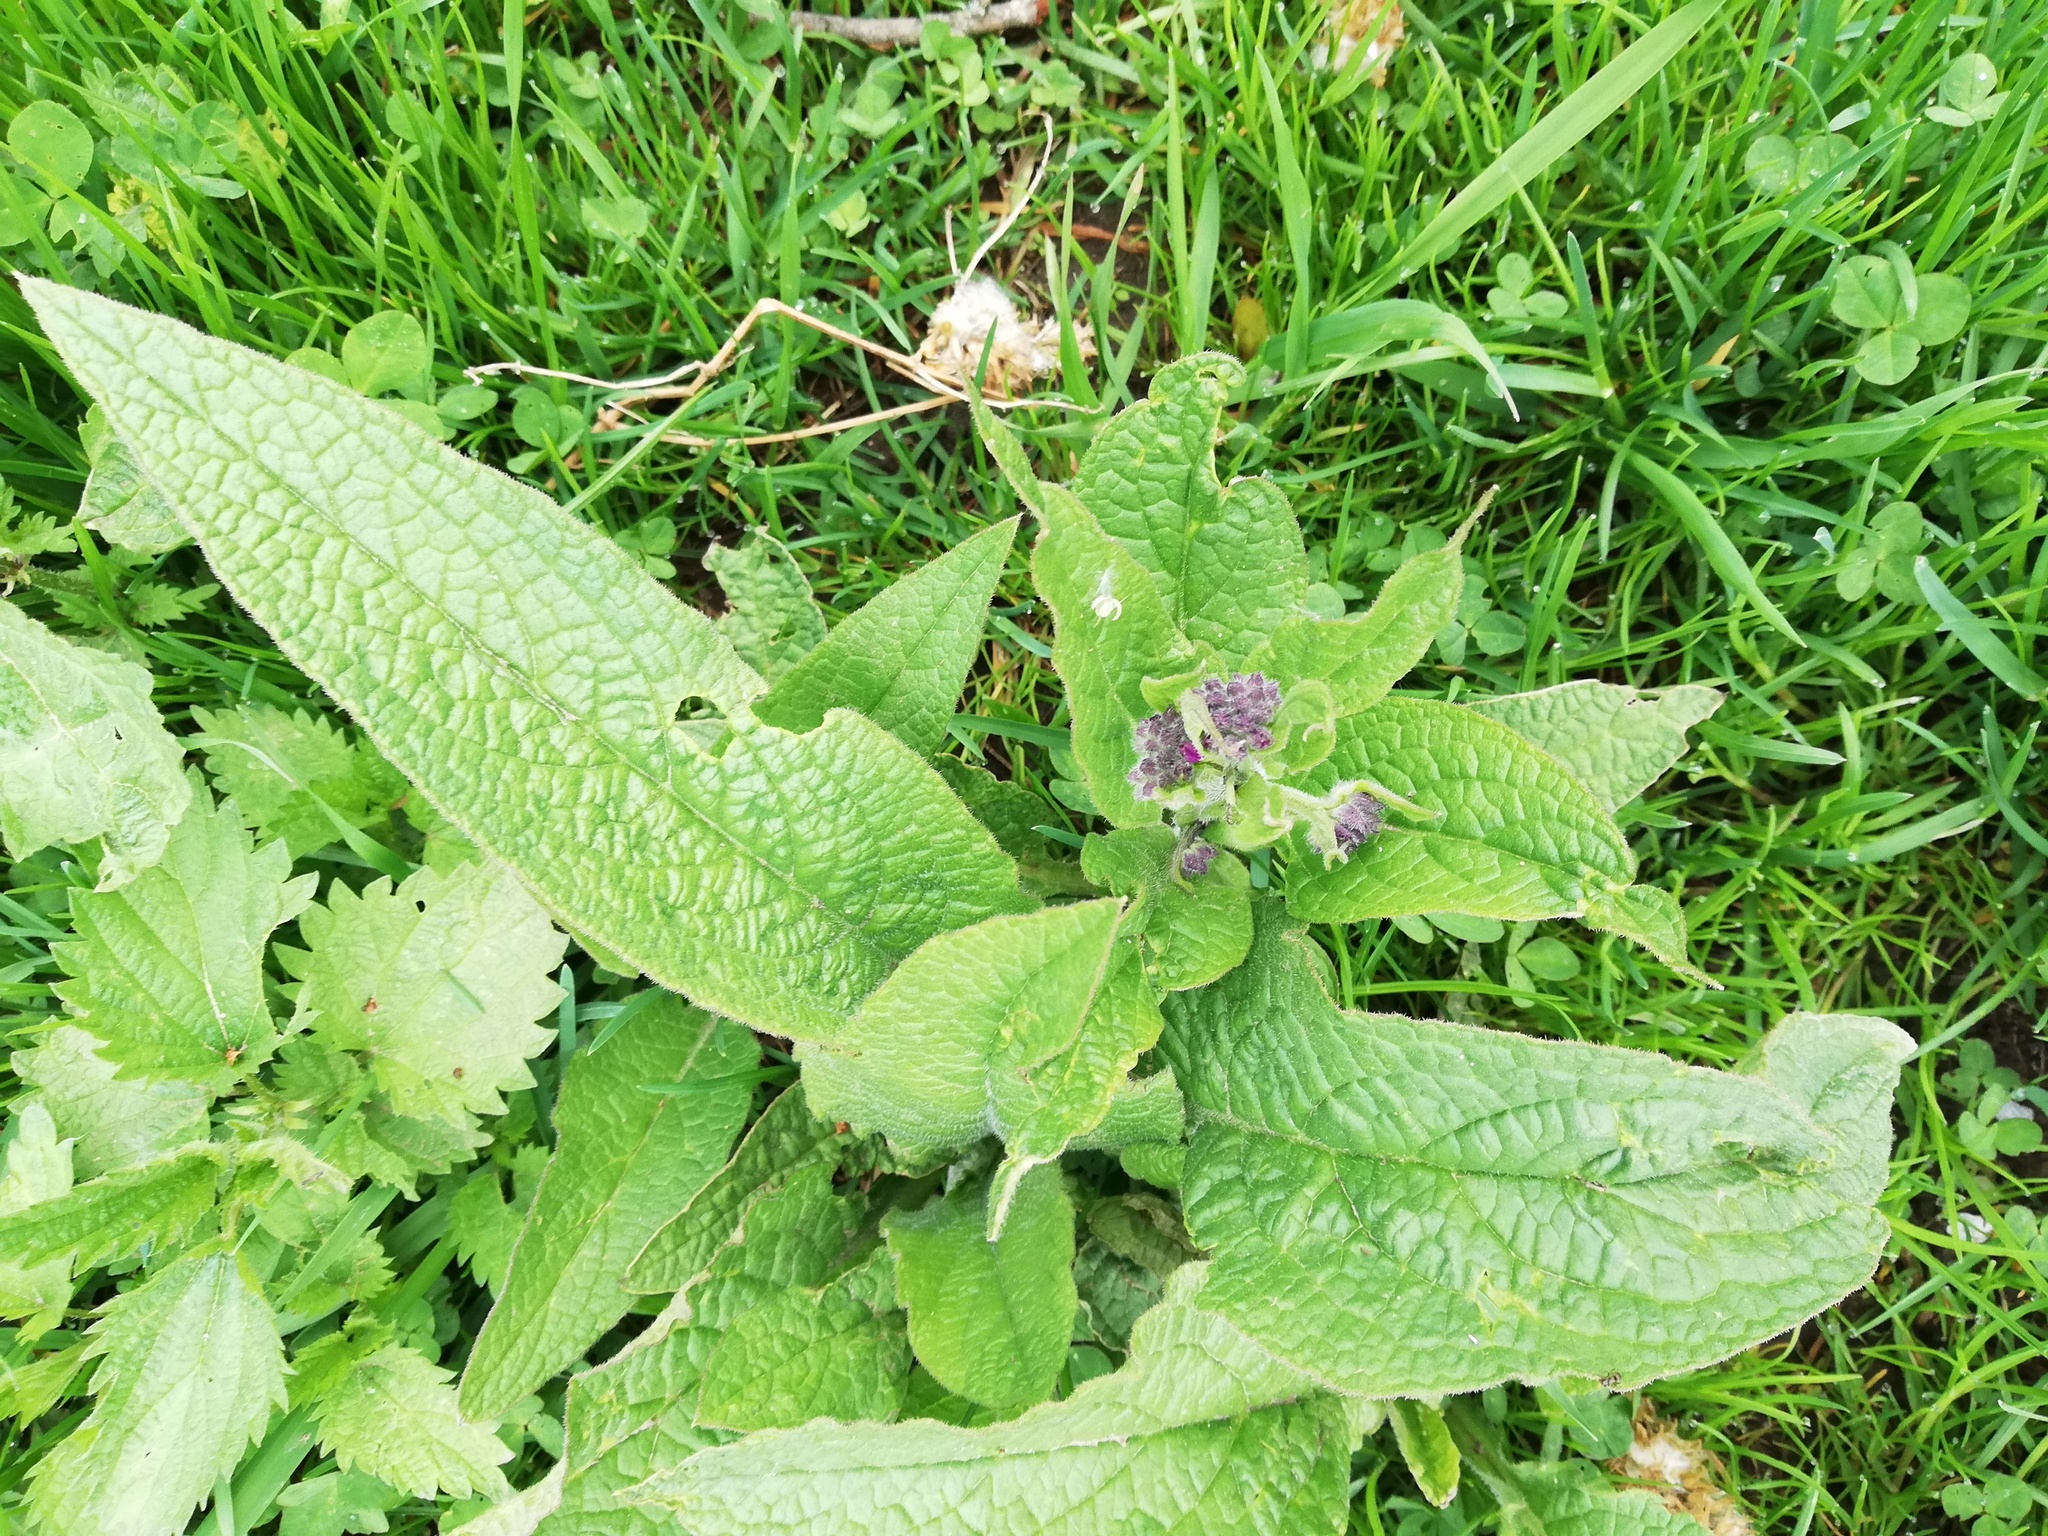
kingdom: Plantae
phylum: Tracheophyta
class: Magnoliopsida
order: Boraginales
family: Boraginaceae
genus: Symphytum
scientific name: Symphytum officinale
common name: Common comfrey
